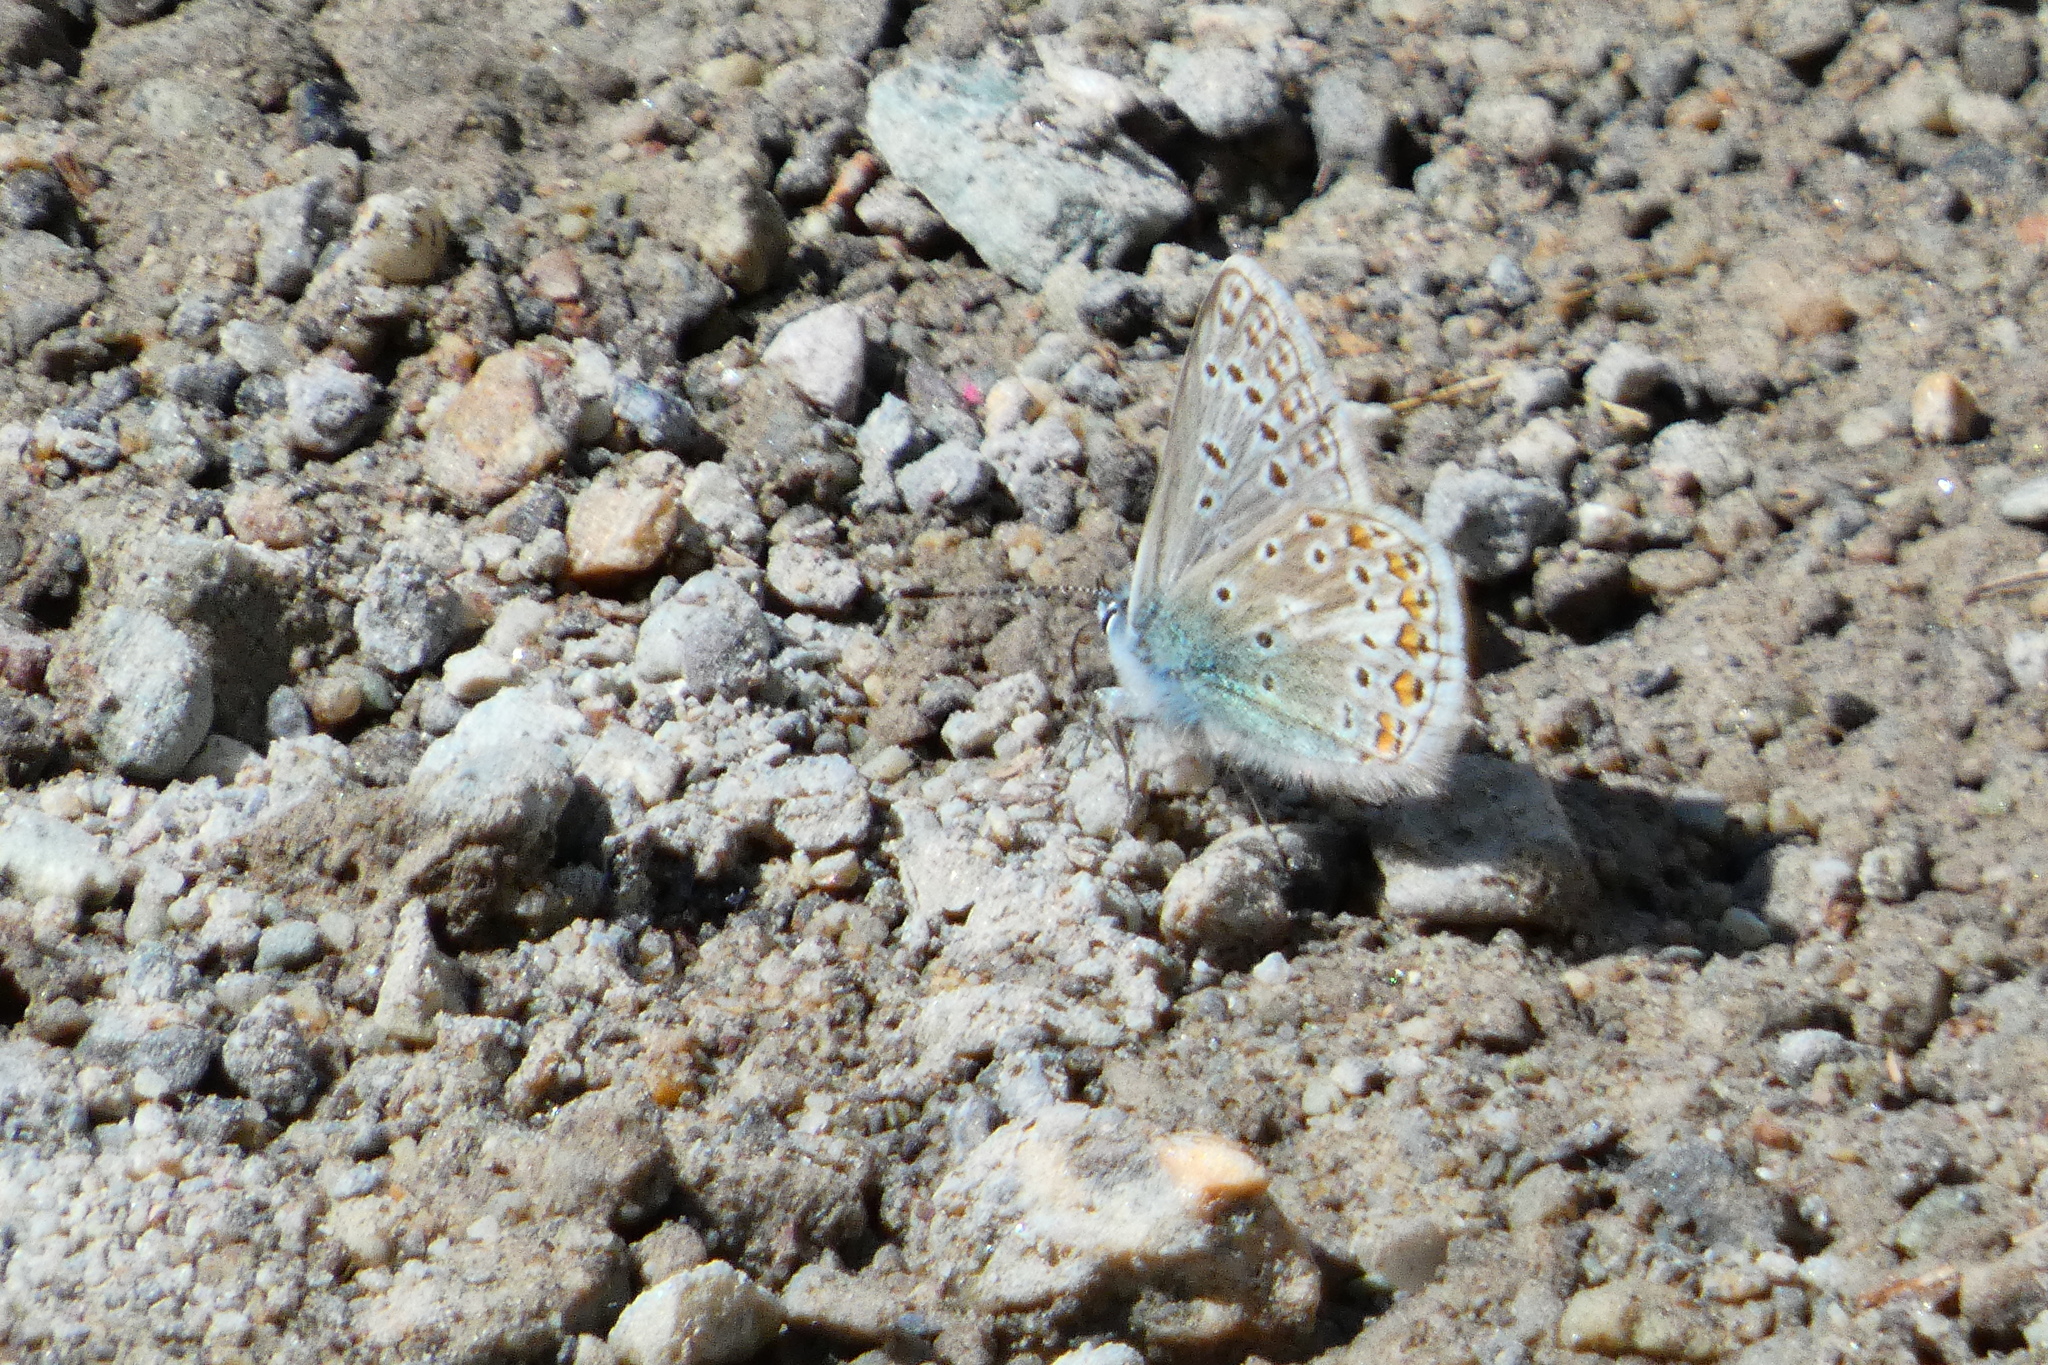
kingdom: Animalia
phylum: Arthropoda
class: Insecta
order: Lepidoptera
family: Lycaenidae
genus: Polyommatus
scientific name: Polyommatus icarus
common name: Common blue
